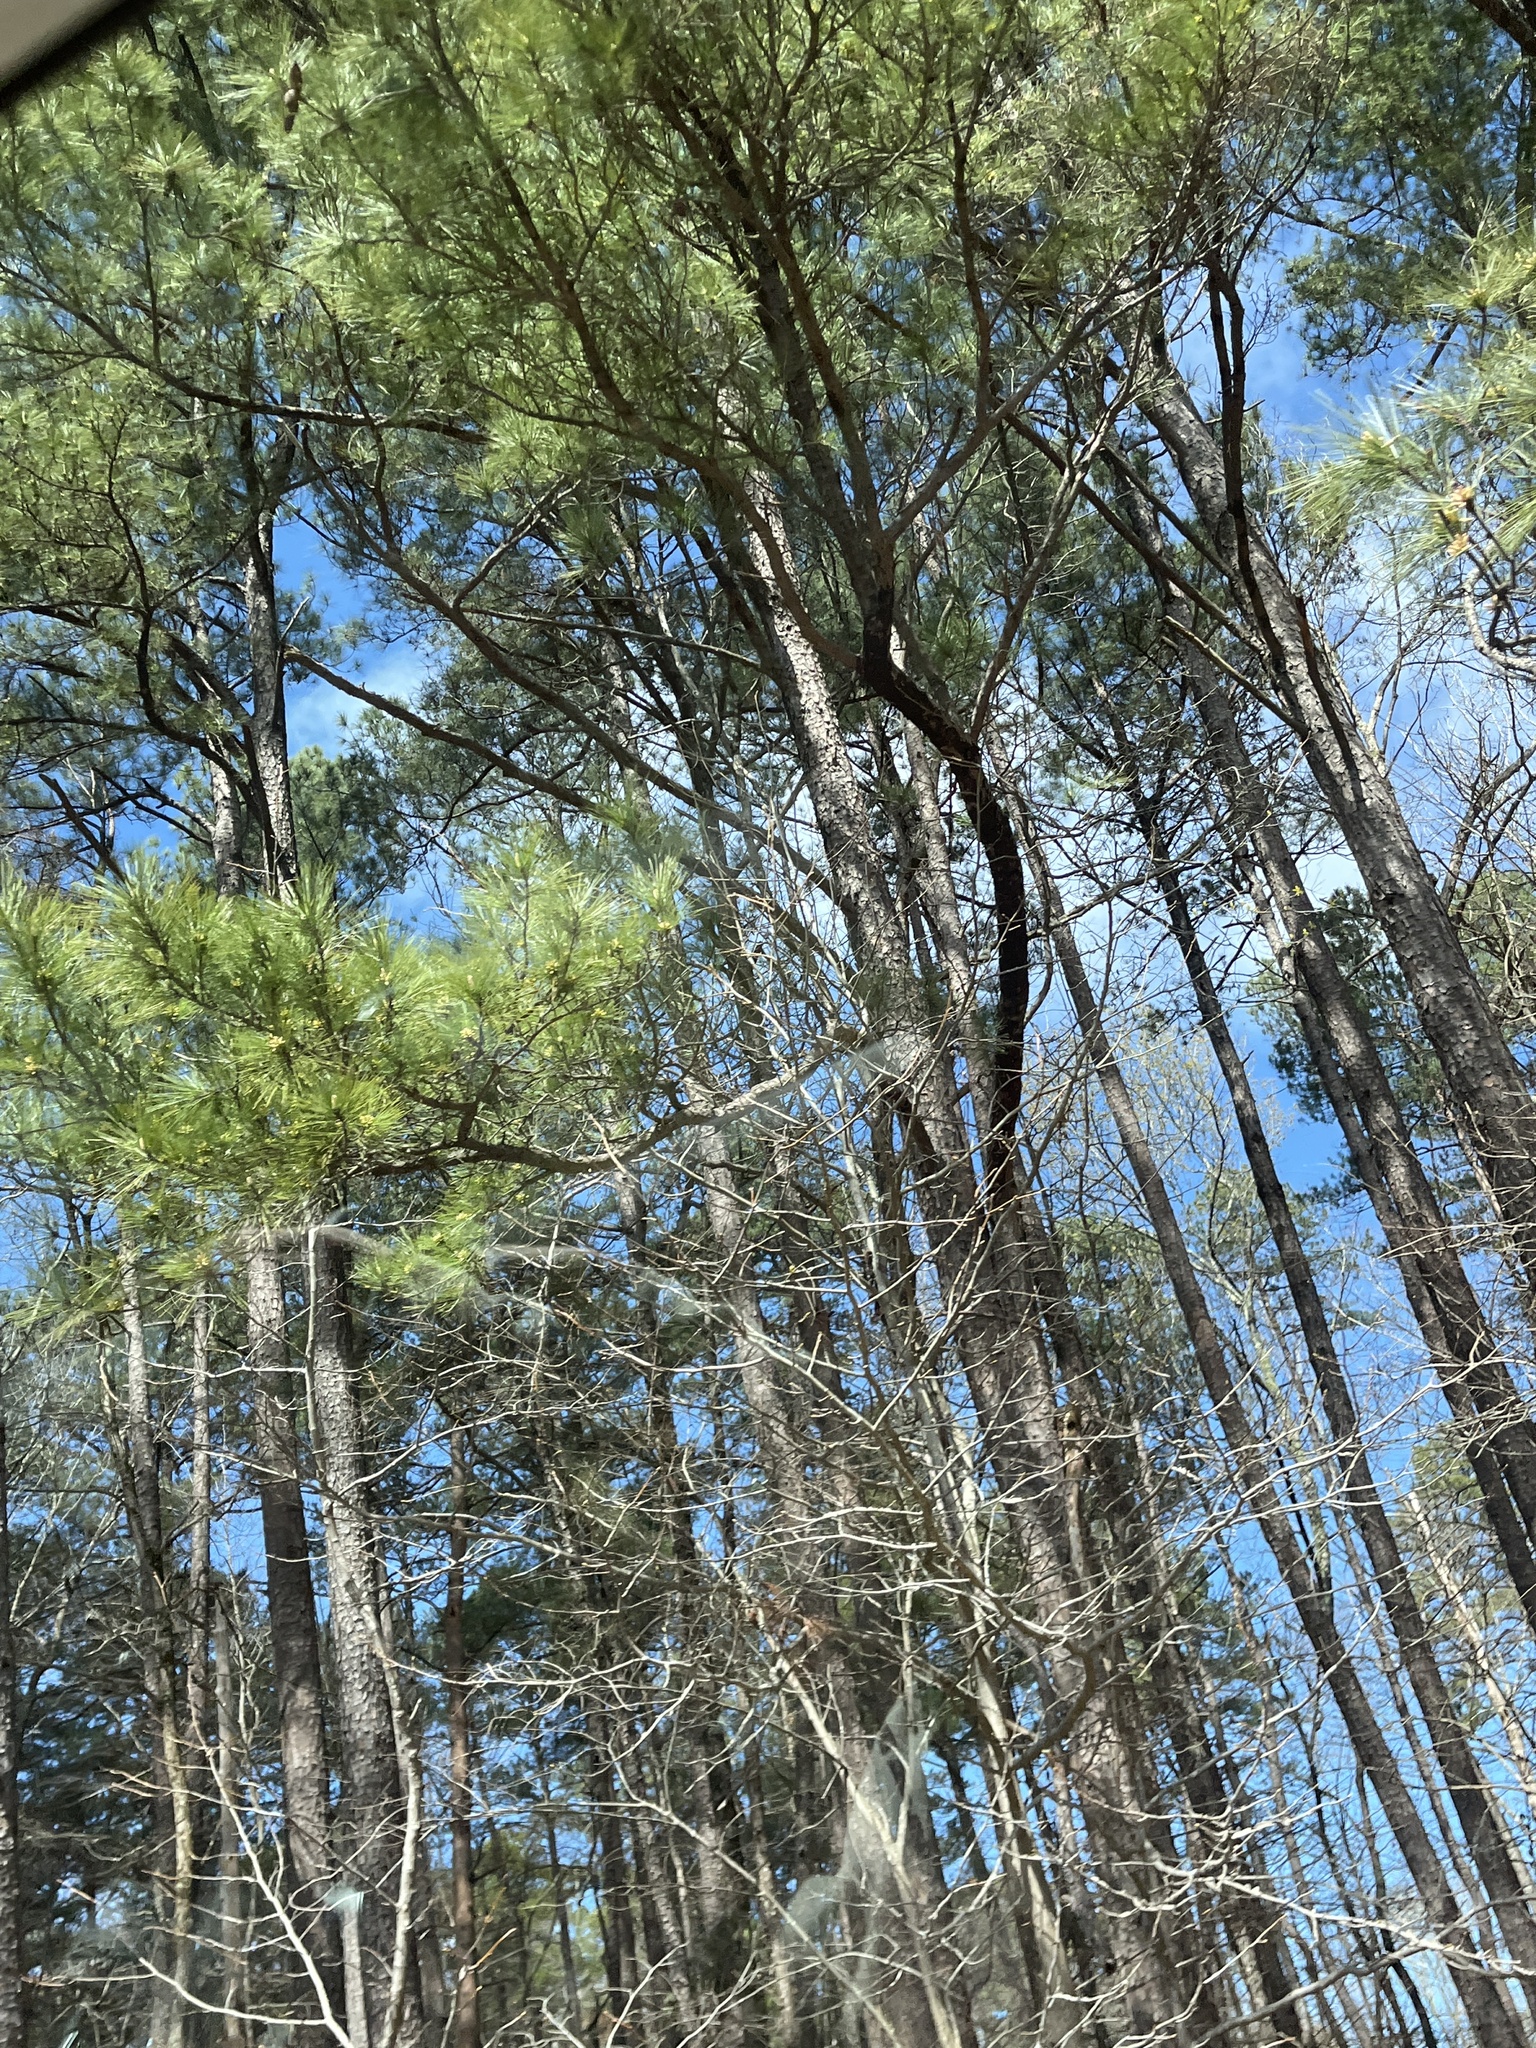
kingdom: Plantae
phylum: Tracheophyta
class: Pinopsida
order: Pinales
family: Pinaceae
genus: Pinus
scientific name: Pinus strobus
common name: Weymouth pine
